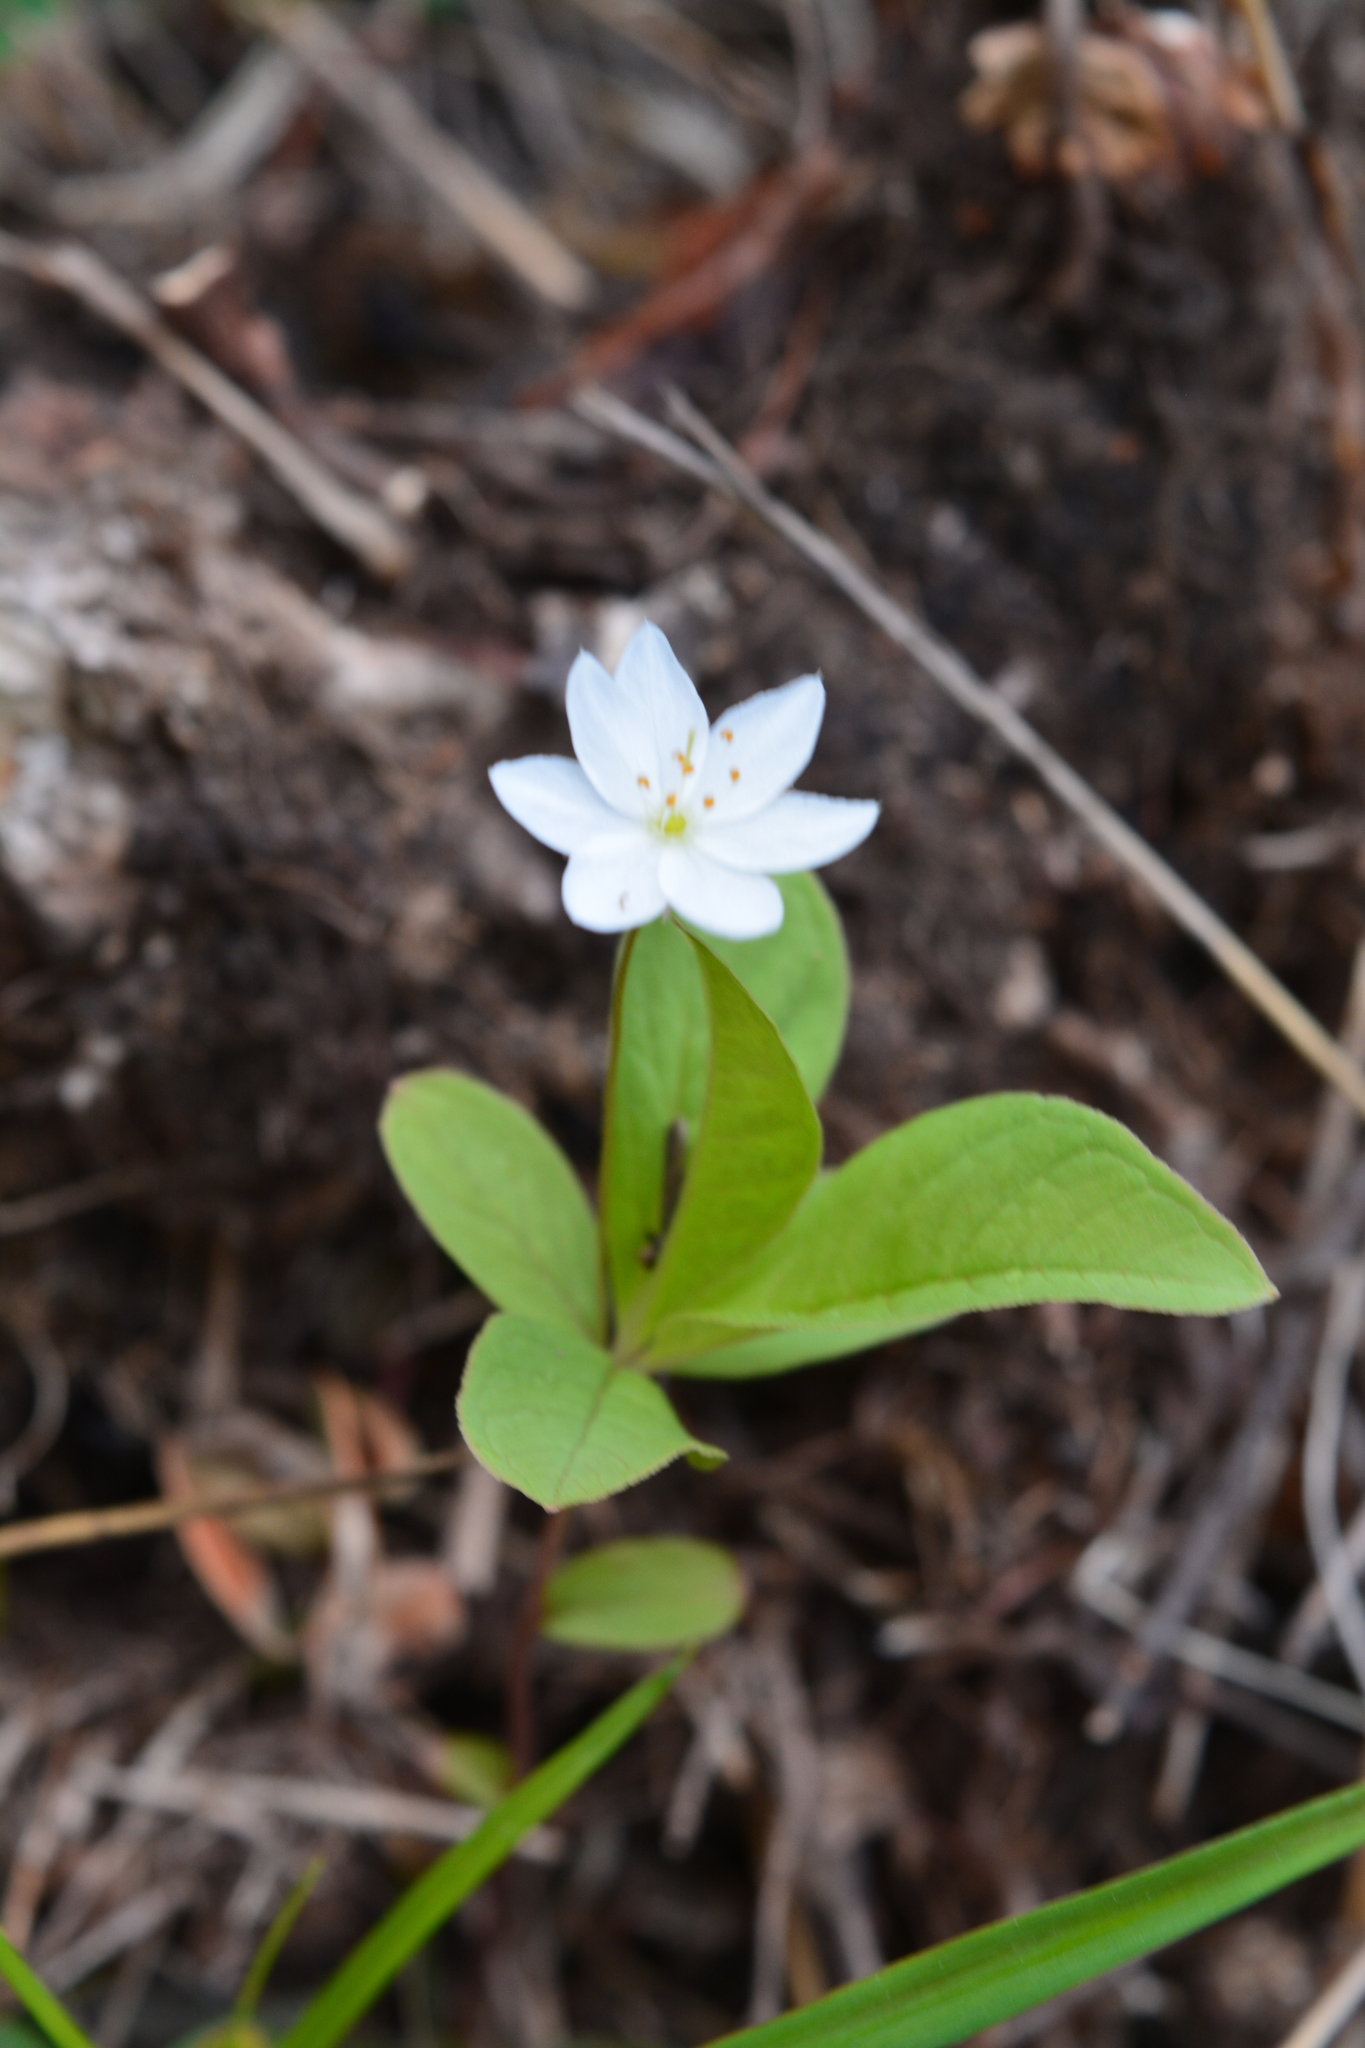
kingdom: Plantae
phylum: Tracheophyta
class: Magnoliopsida
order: Ericales
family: Primulaceae
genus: Lysimachia
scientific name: Lysimachia europaea
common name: Arctic starflower
